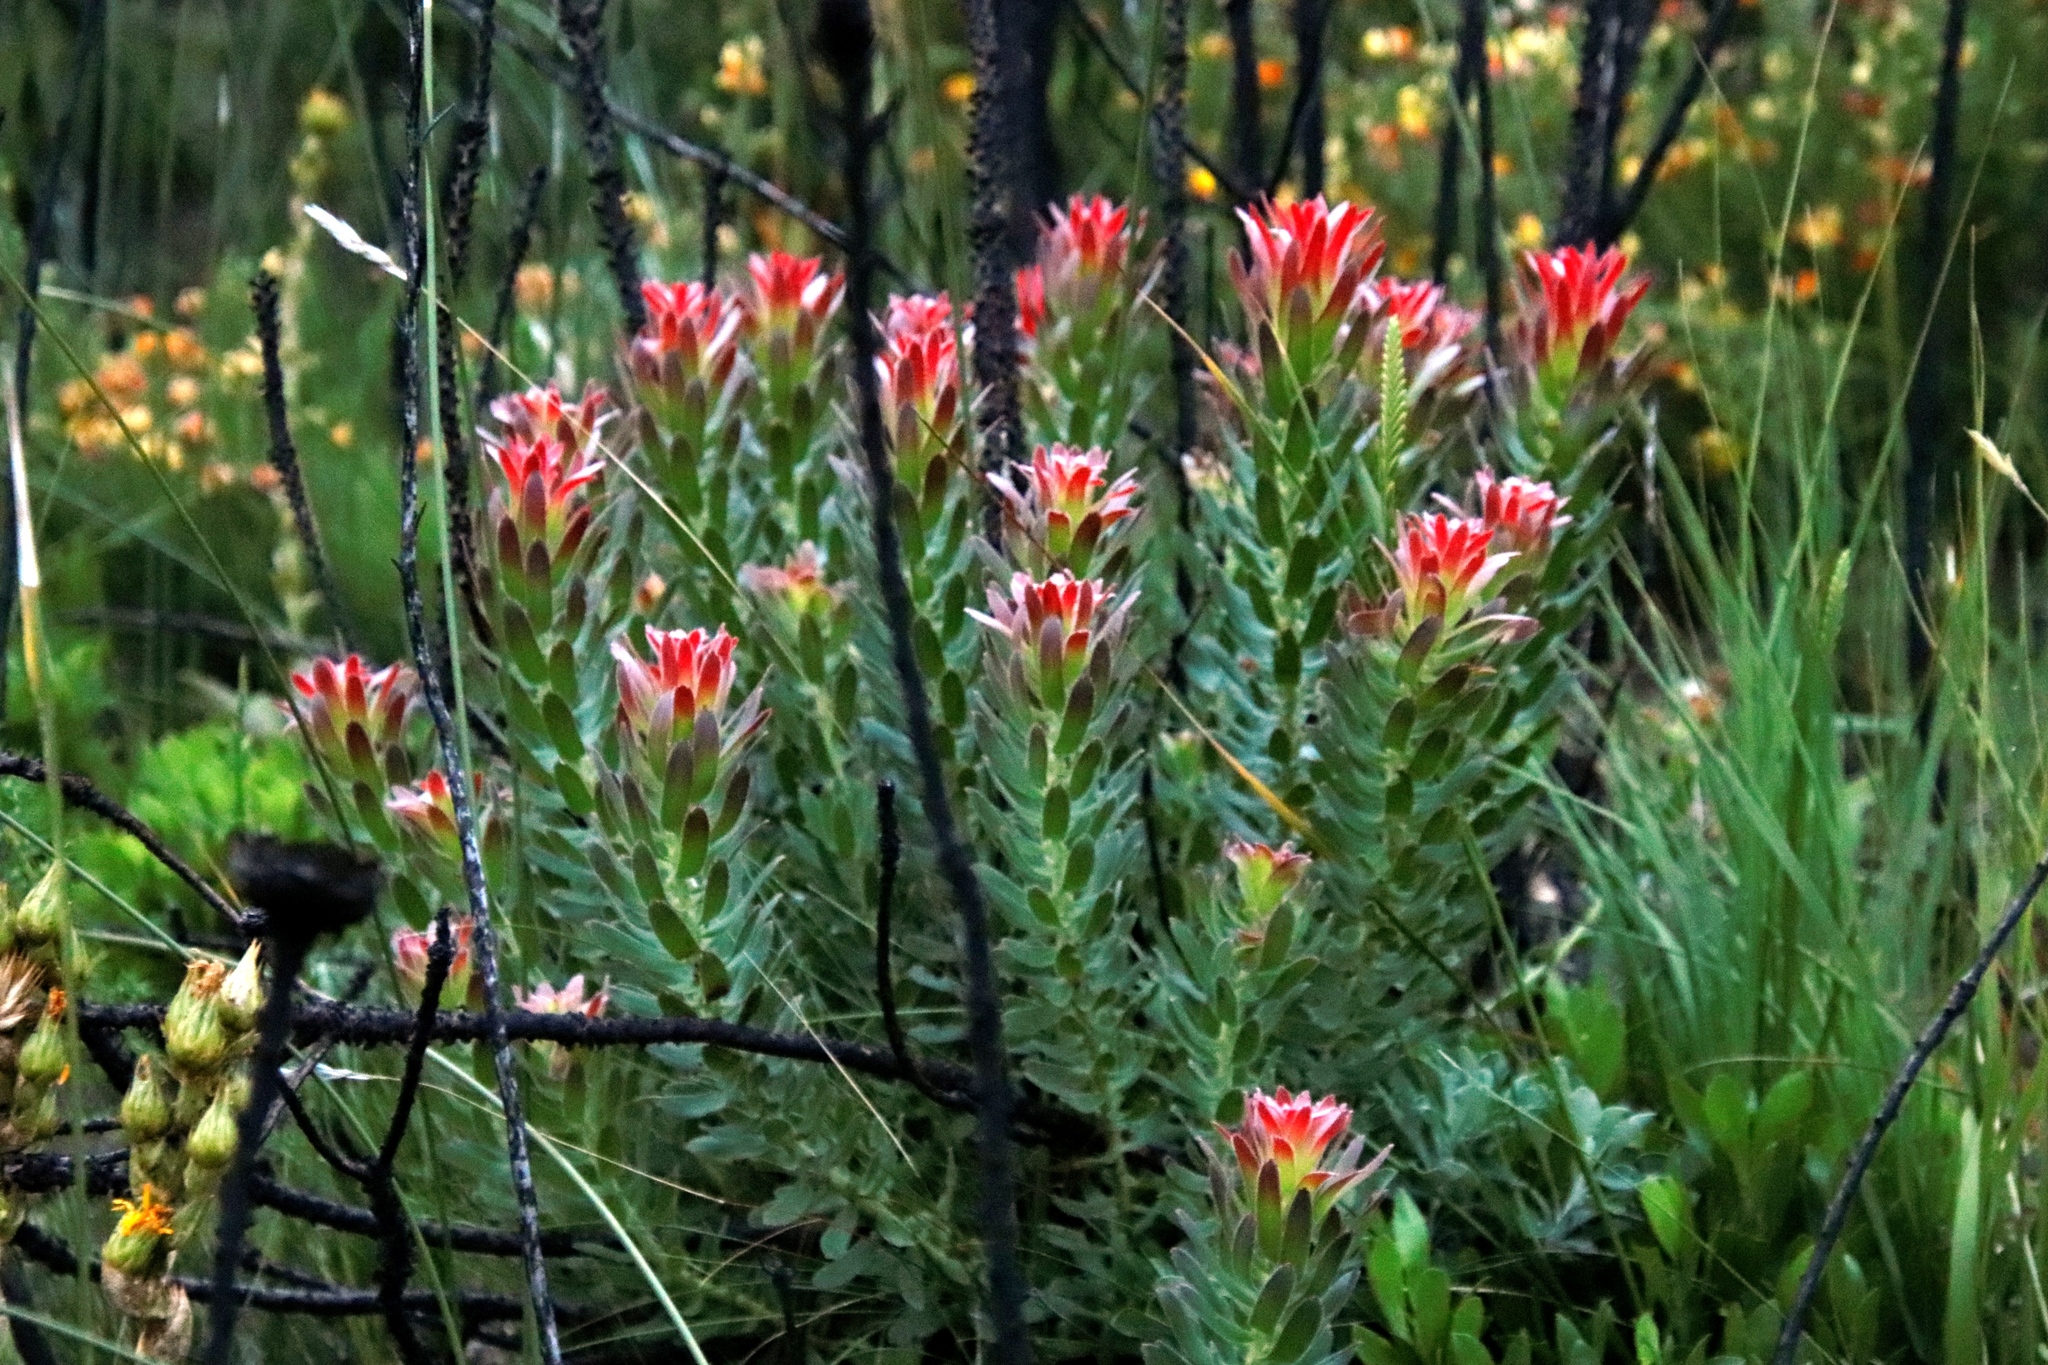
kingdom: Plantae
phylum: Tracheophyta
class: Magnoliopsida
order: Proteales
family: Proteaceae
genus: Mimetes
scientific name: Mimetes cucullatus
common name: Common pagoda
